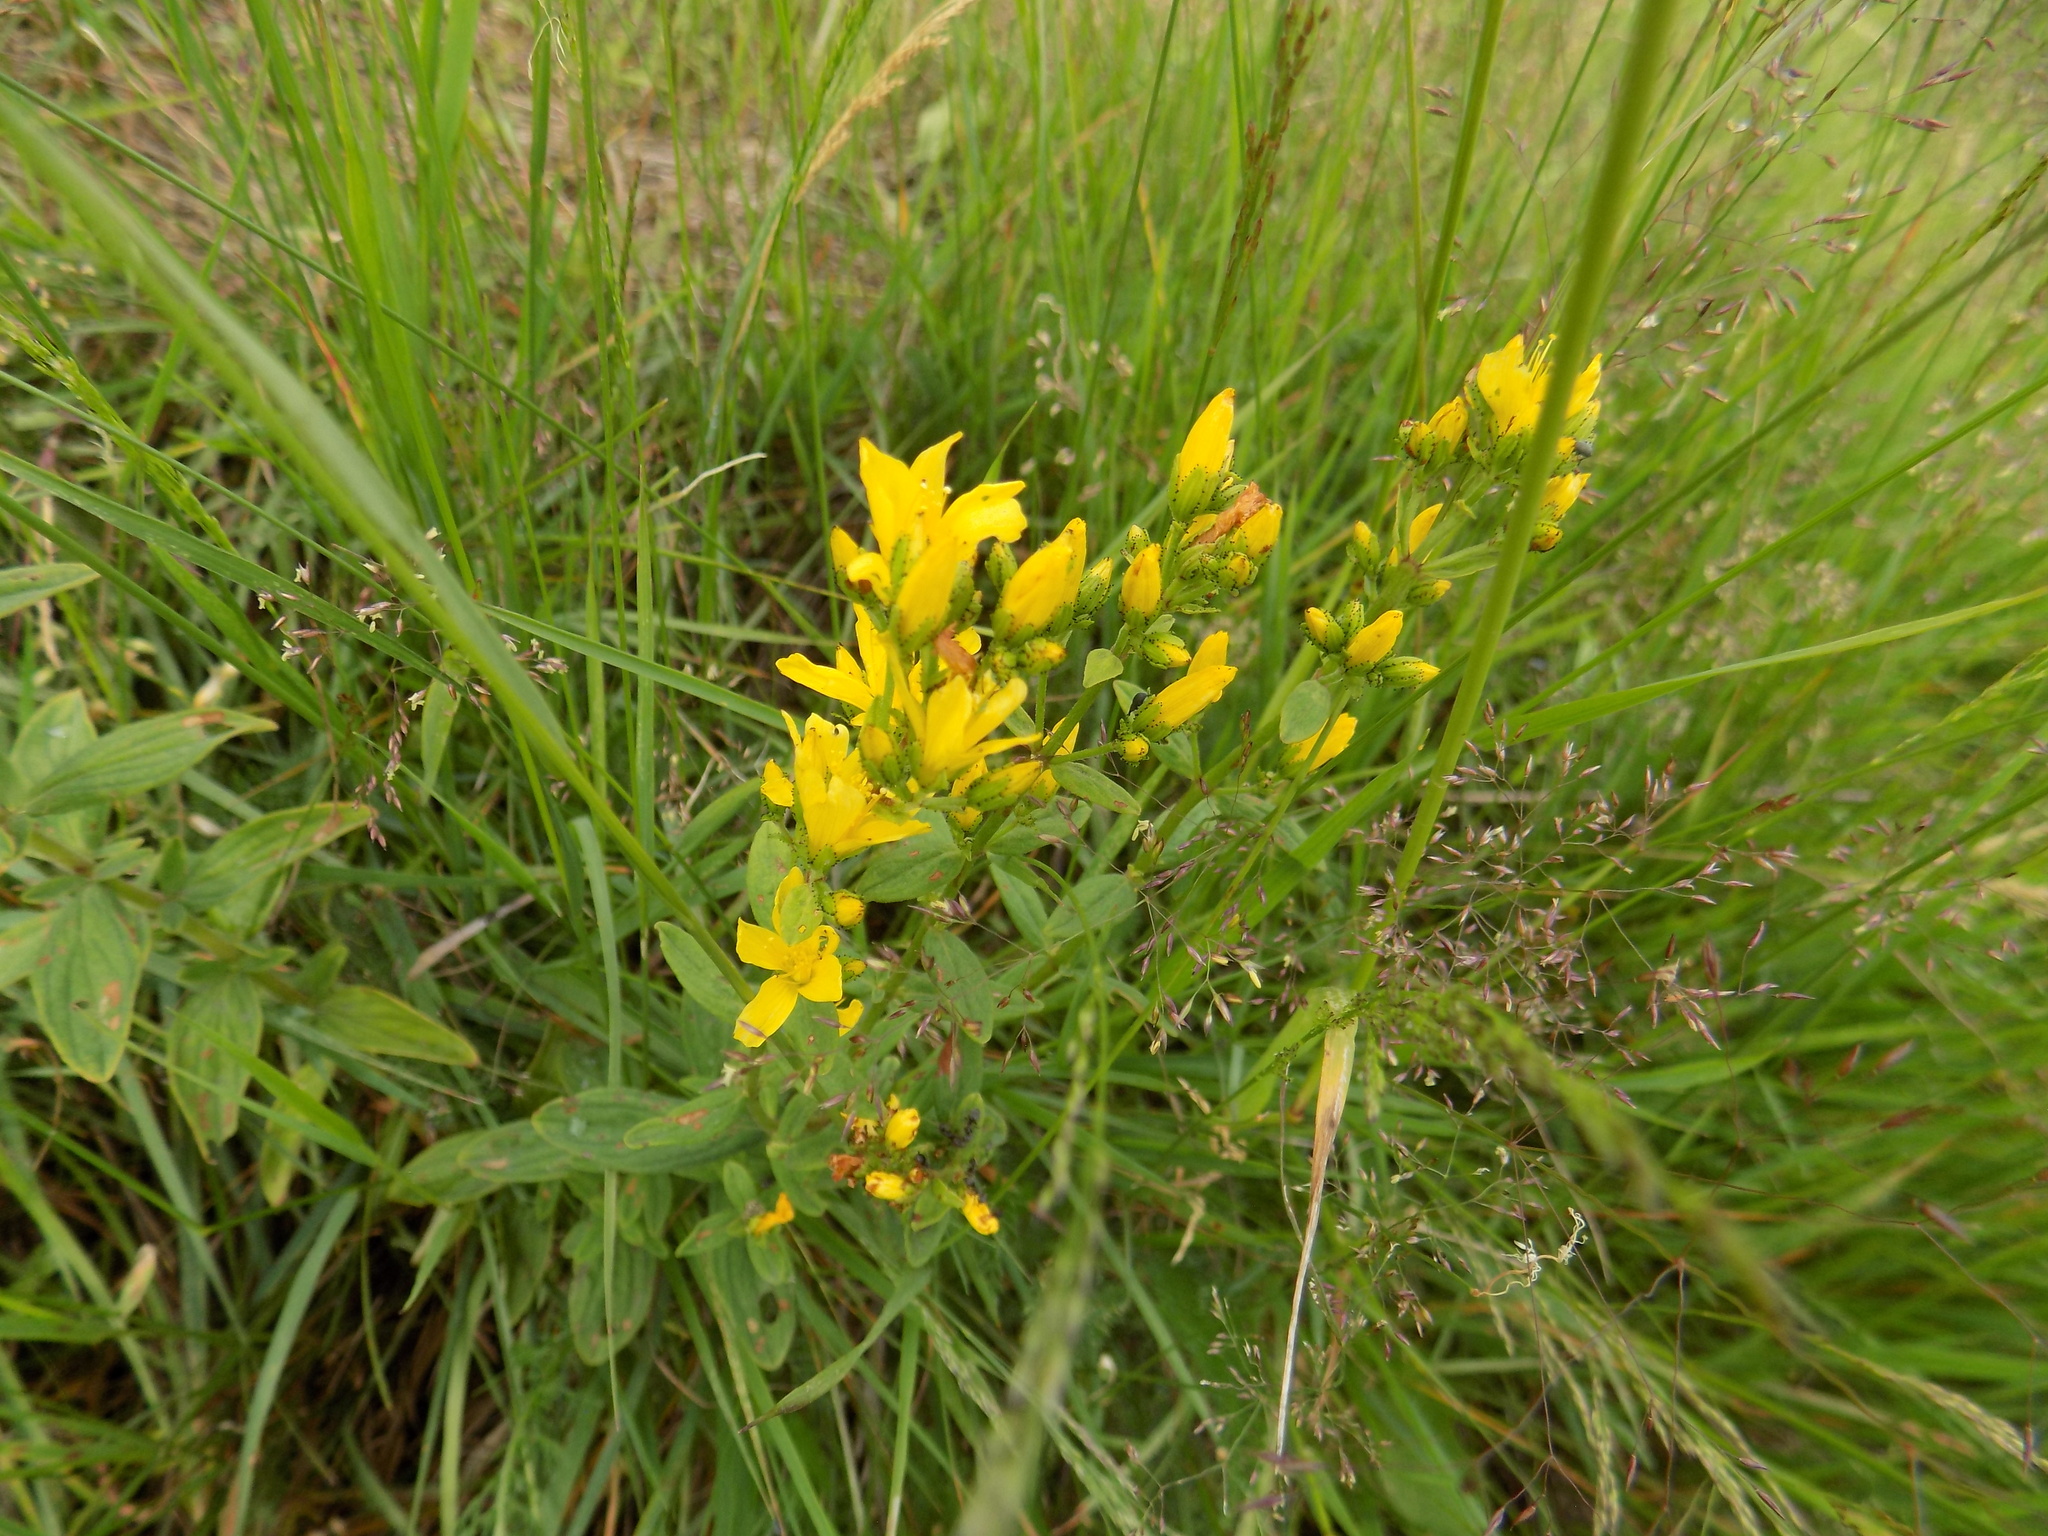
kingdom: Plantae
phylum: Tracheophyta
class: Magnoliopsida
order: Malpighiales
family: Hypericaceae
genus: Hypericum
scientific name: Hypericum hirsutum
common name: Hairy st. john's-wort
